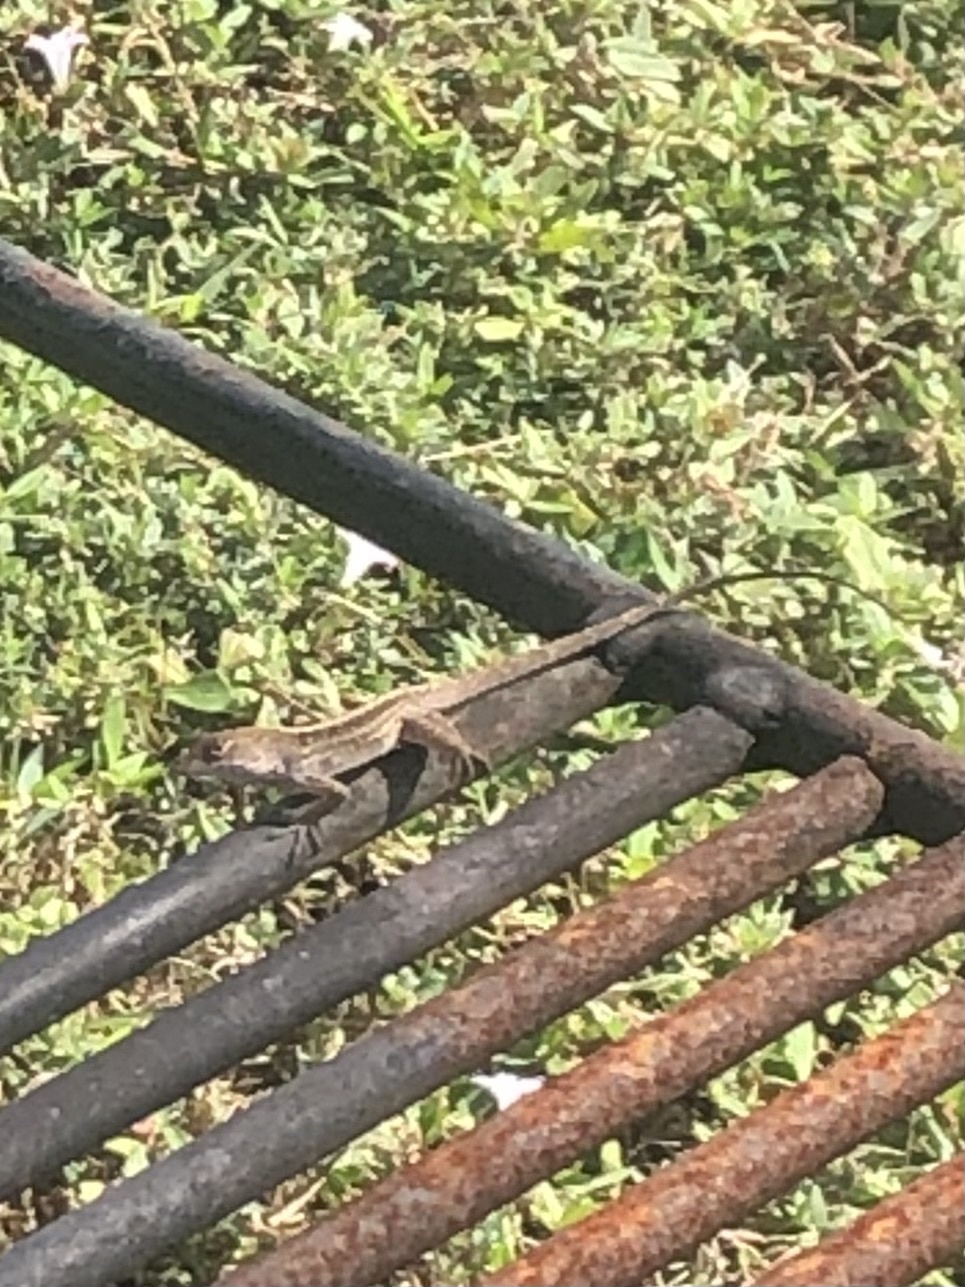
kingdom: Animalia
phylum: Chordata
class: Squamata
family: Dactyloidae
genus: Anolis
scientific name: Anolis sagrei
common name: Brown anole
